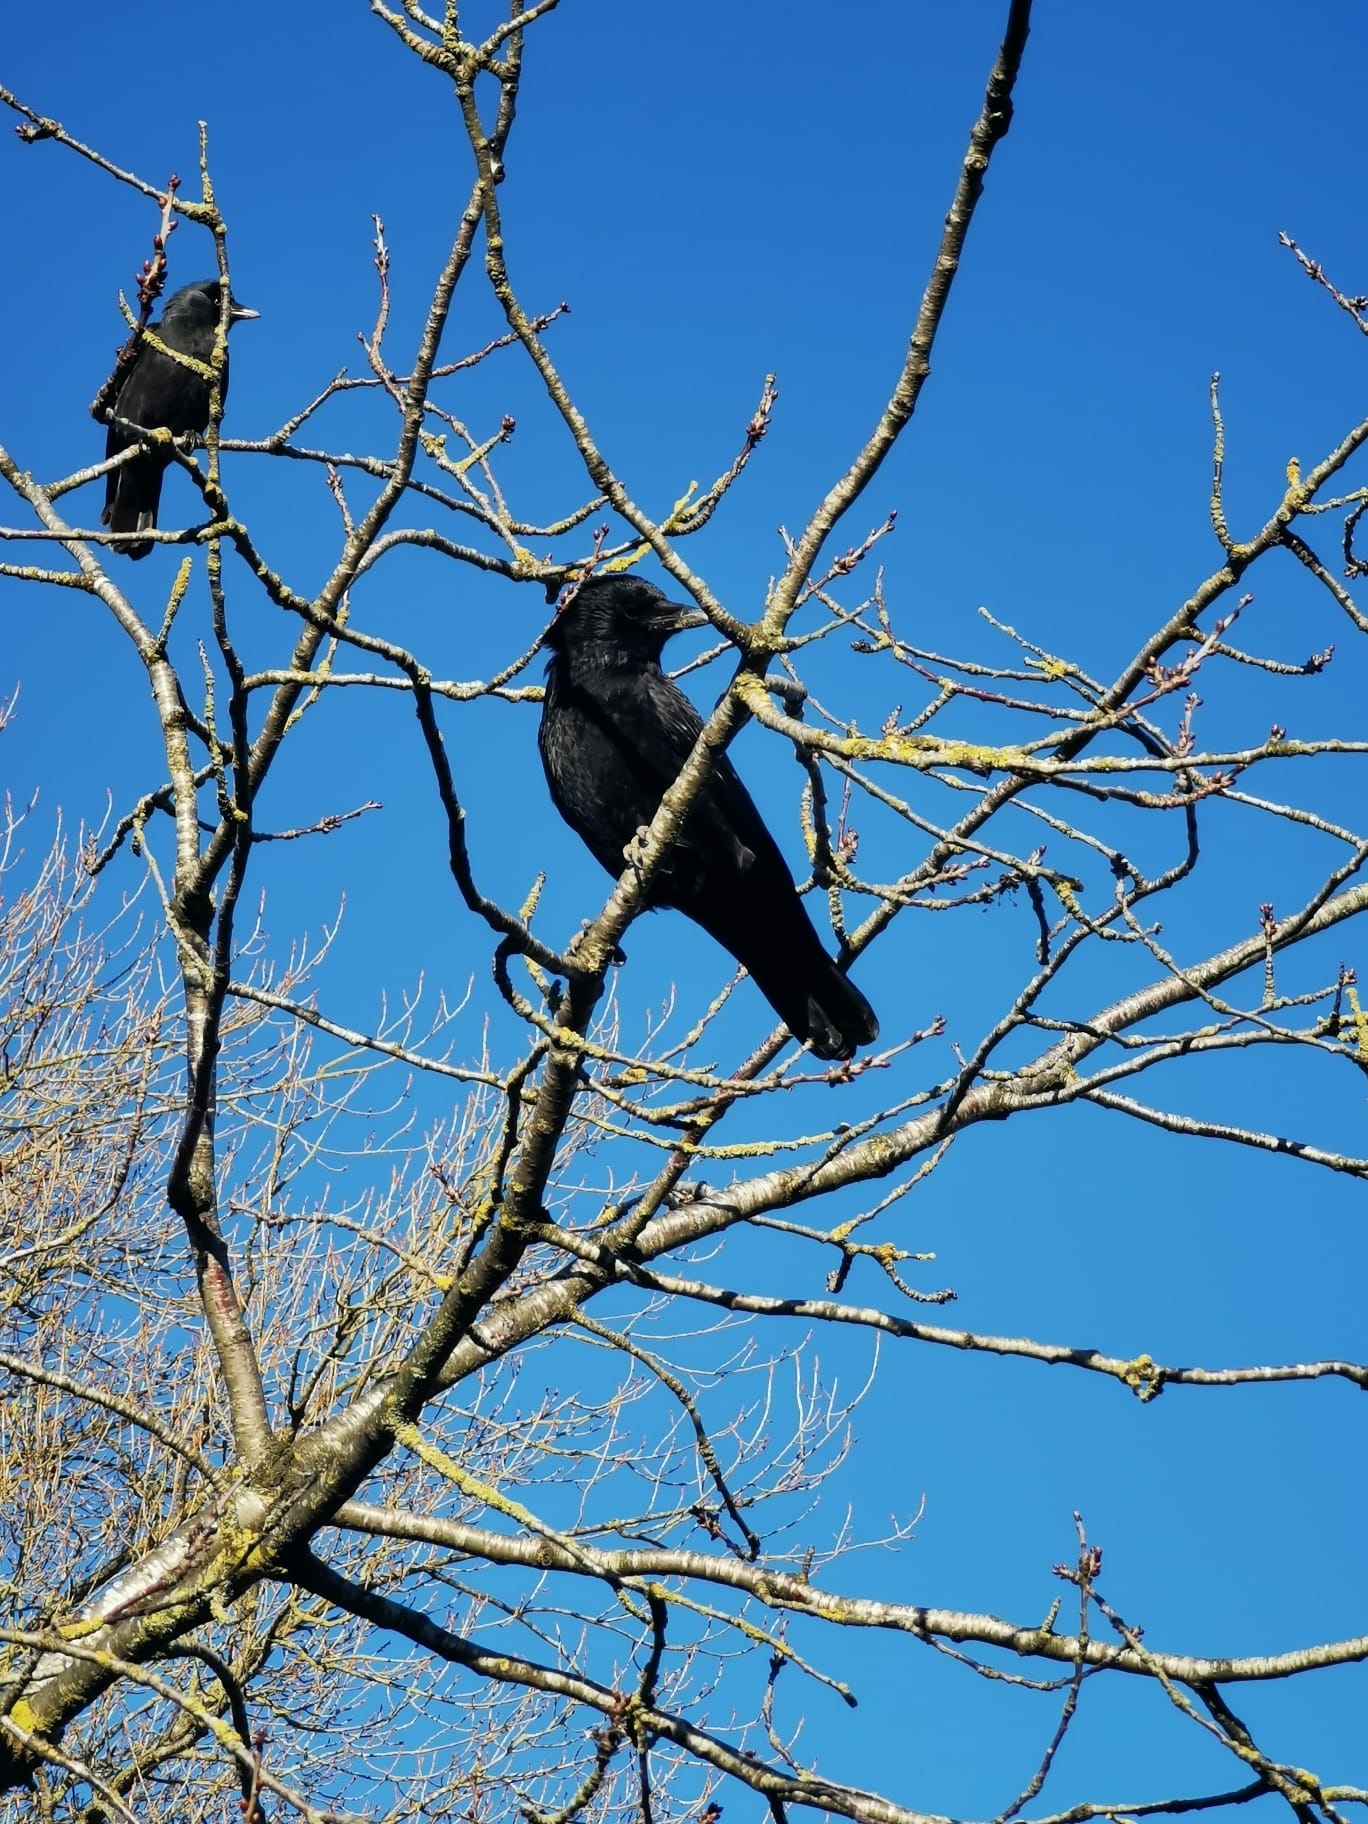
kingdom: Animalia
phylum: Chordata
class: Aves
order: Passeriformes
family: Corvidae
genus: Corvus
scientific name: Corvus corone
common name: Carrion crow
